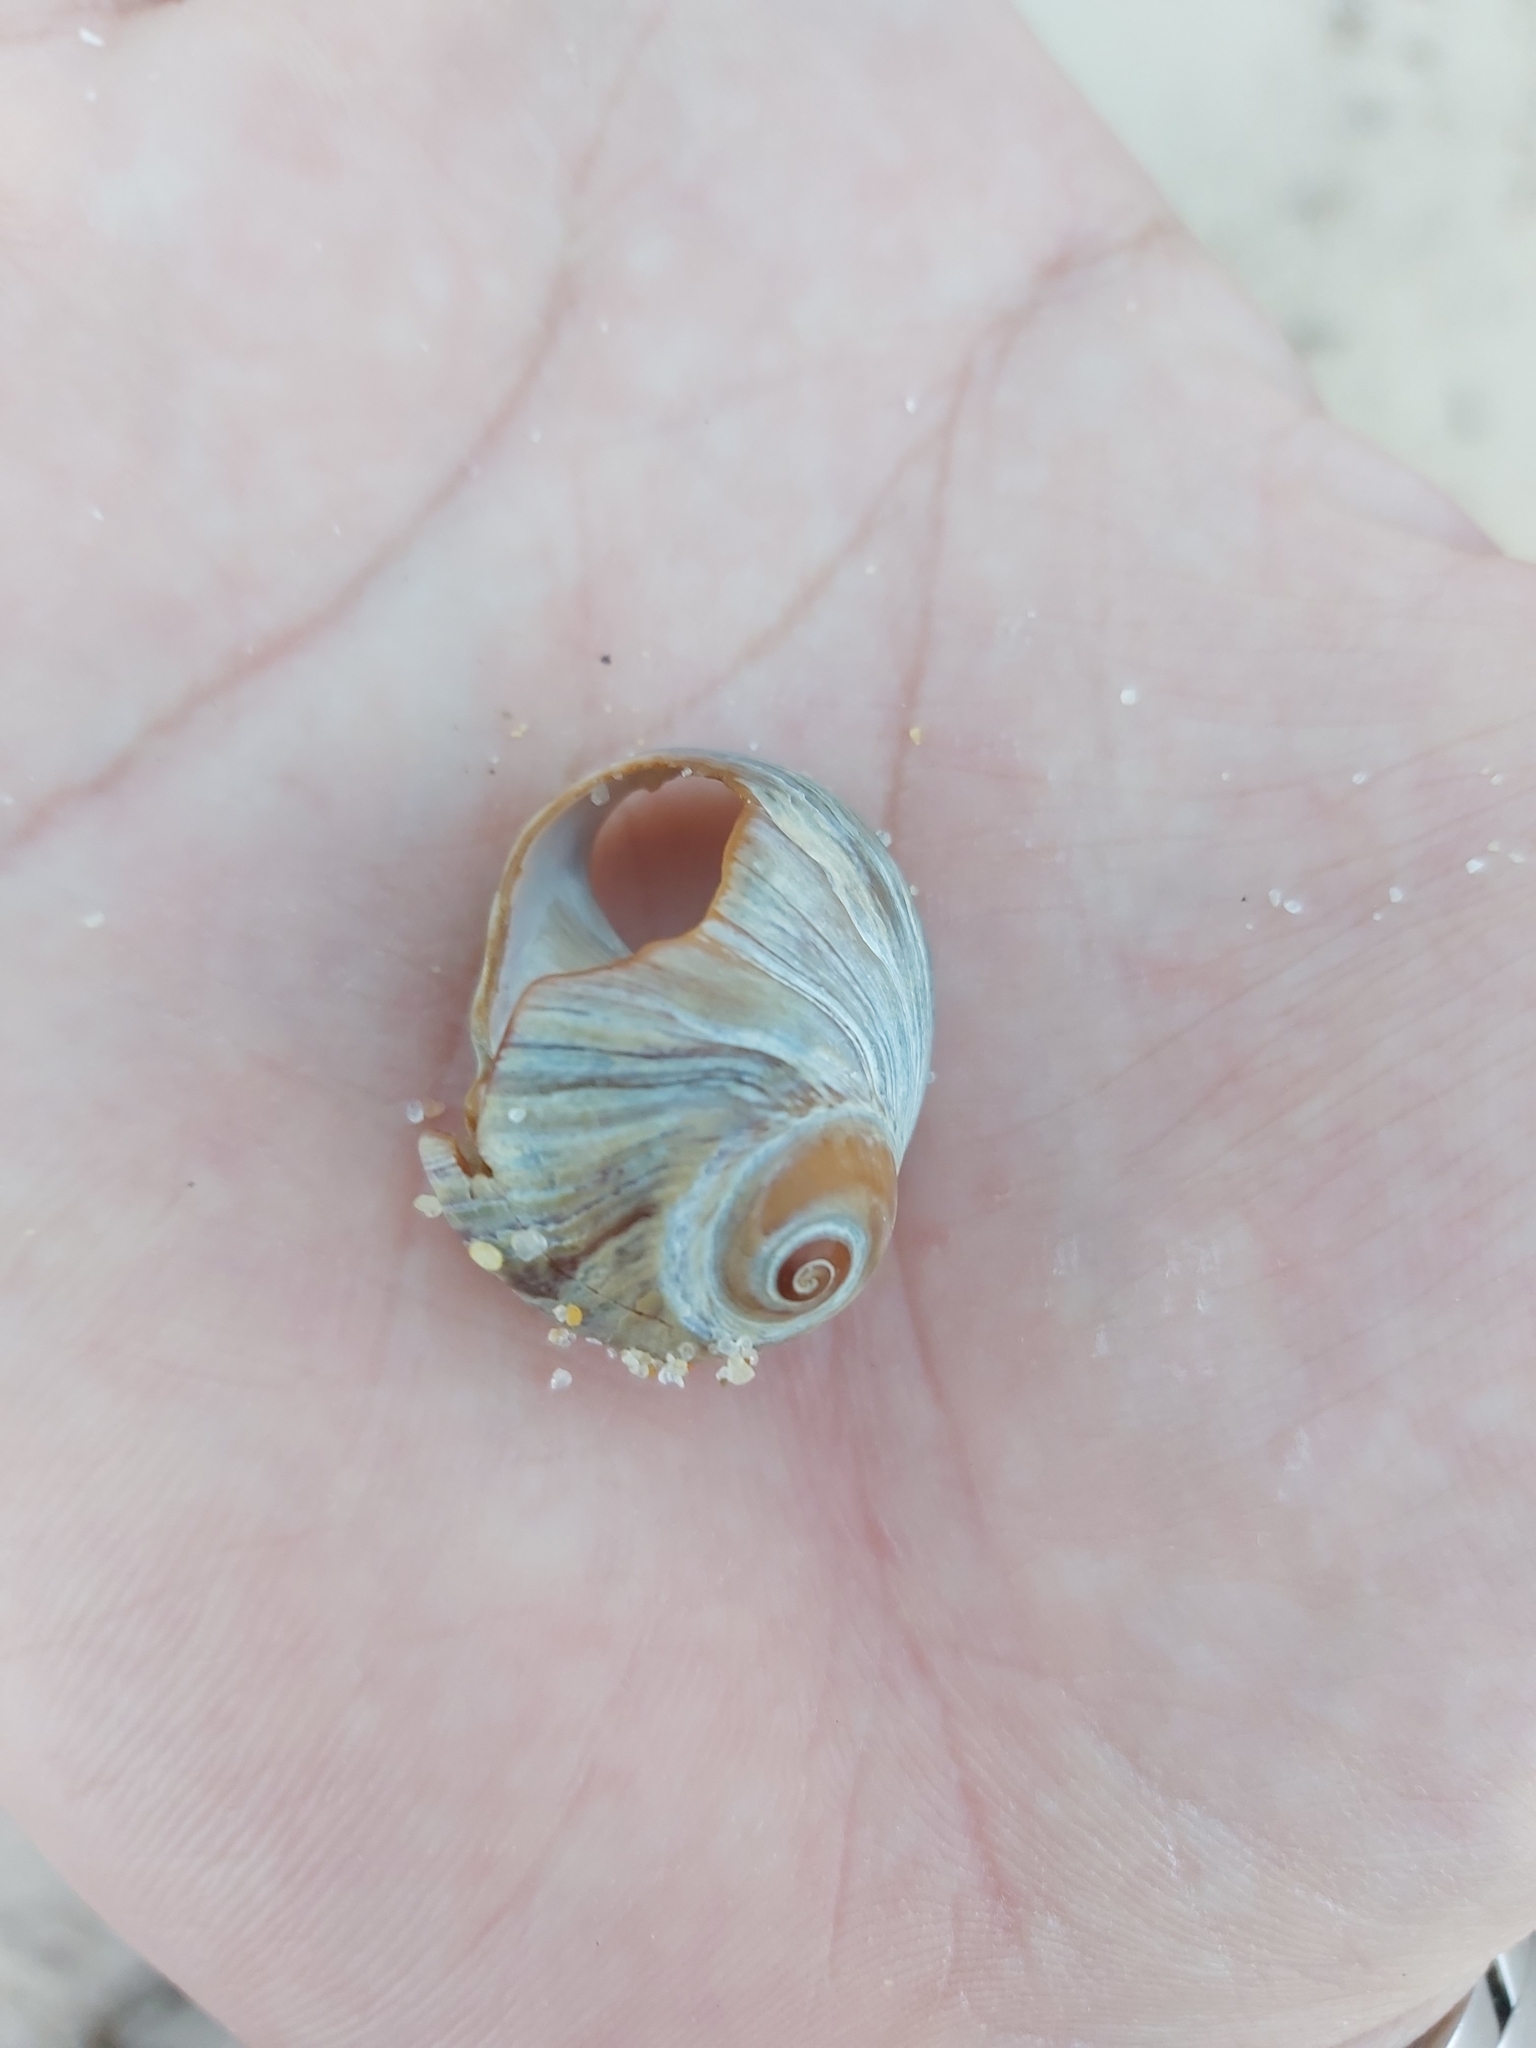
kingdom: Animalia
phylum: Mollusca
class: Gastropoda
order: Littorinimorpha
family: Naticidae
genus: Conuber
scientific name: Conuber melastoma
